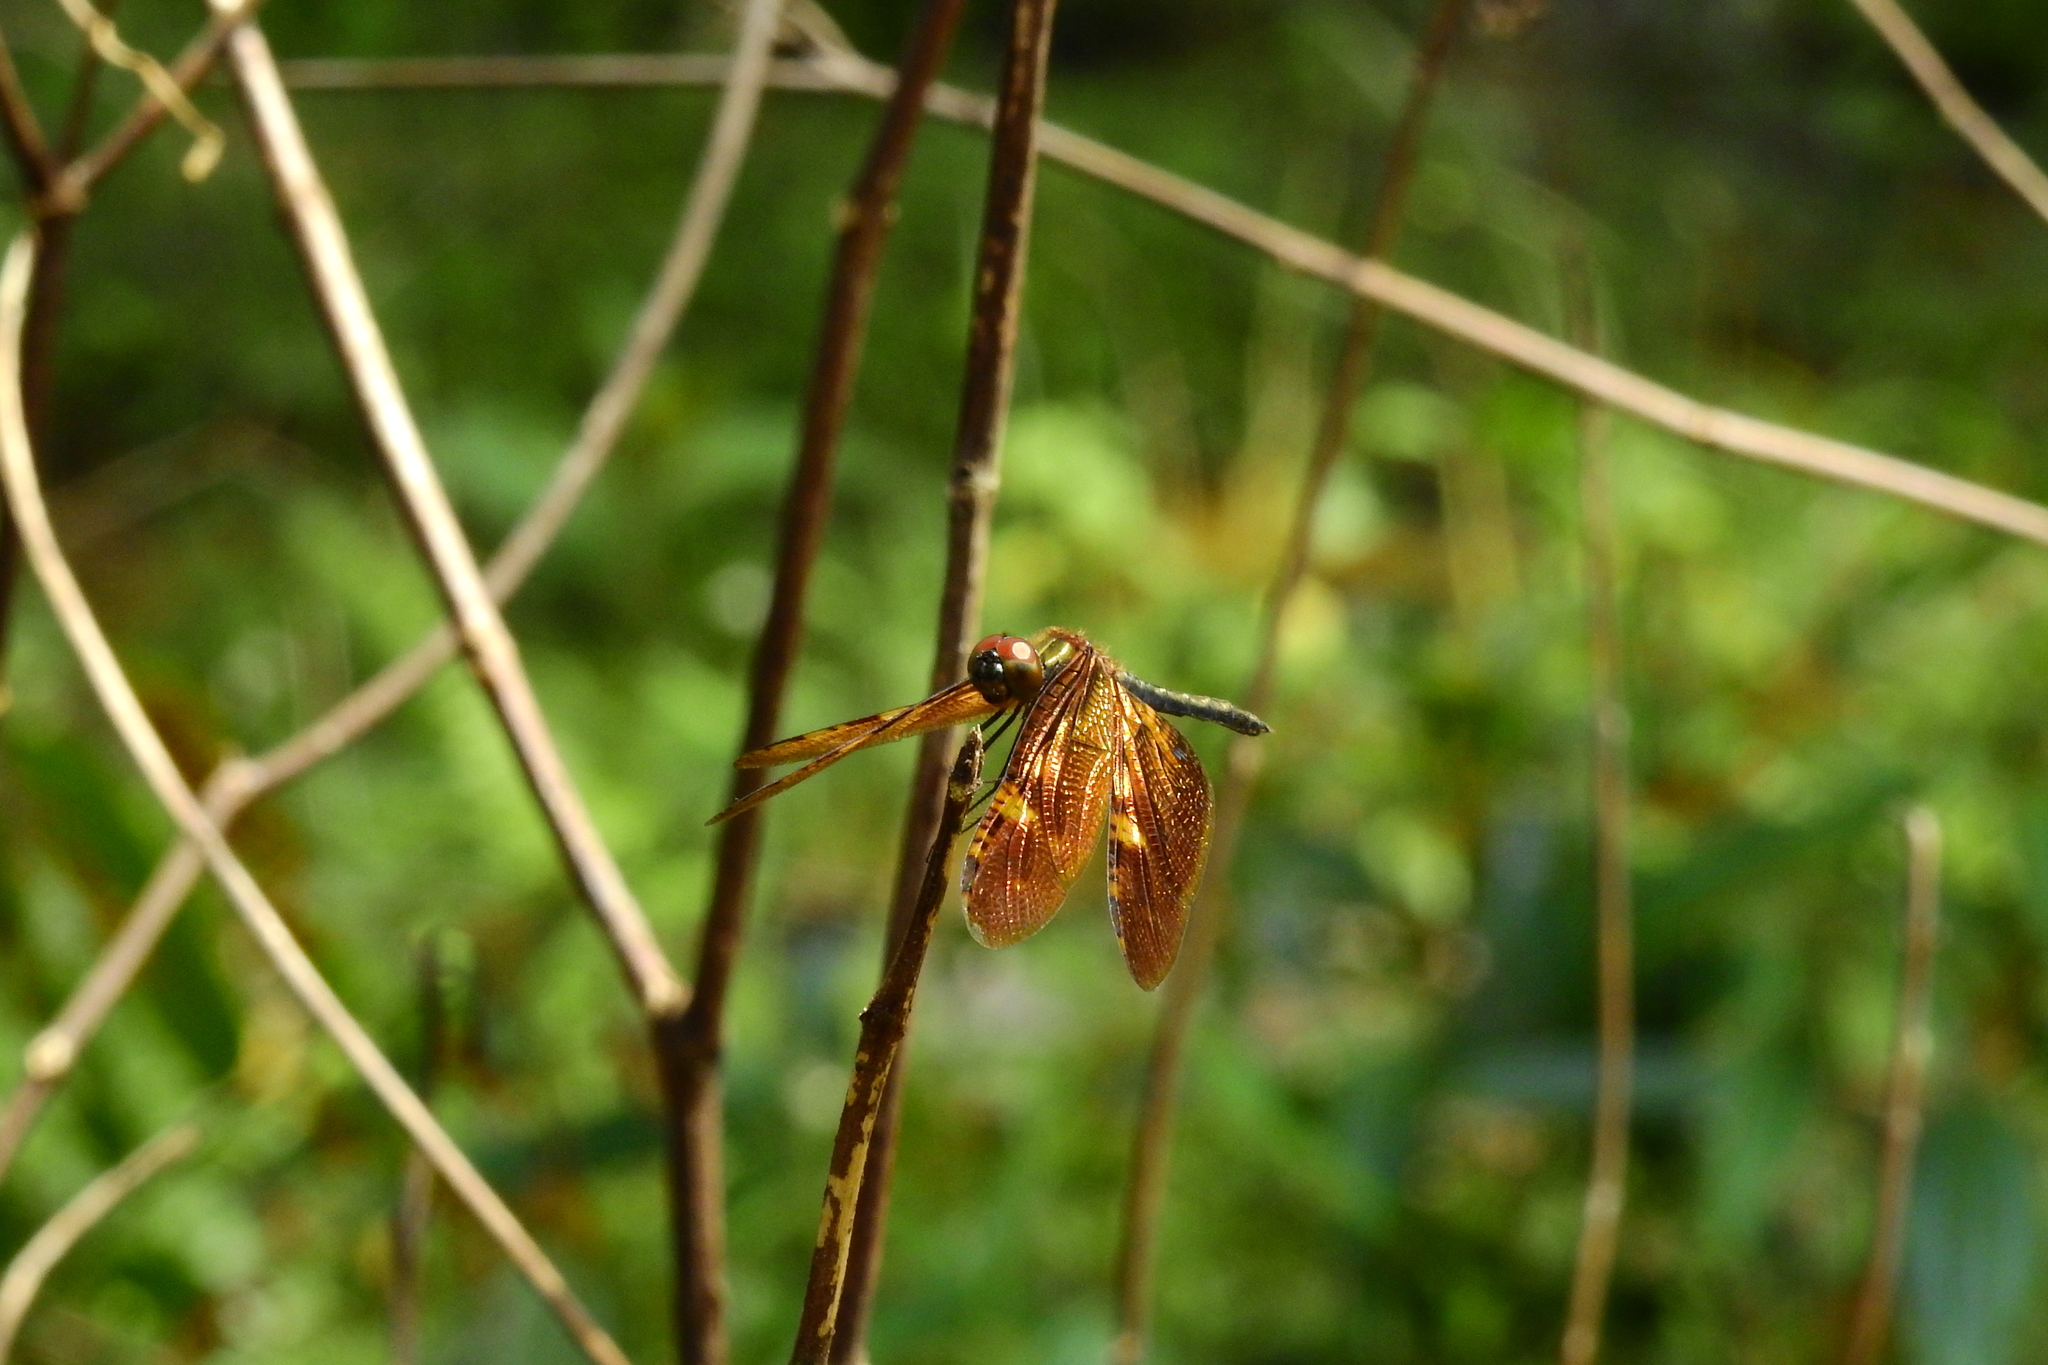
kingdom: Animalia
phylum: Arthropoda
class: Insecta
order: Odonata
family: Libellulidae
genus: Rhyothemis
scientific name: Rhyothemis obsolescens
